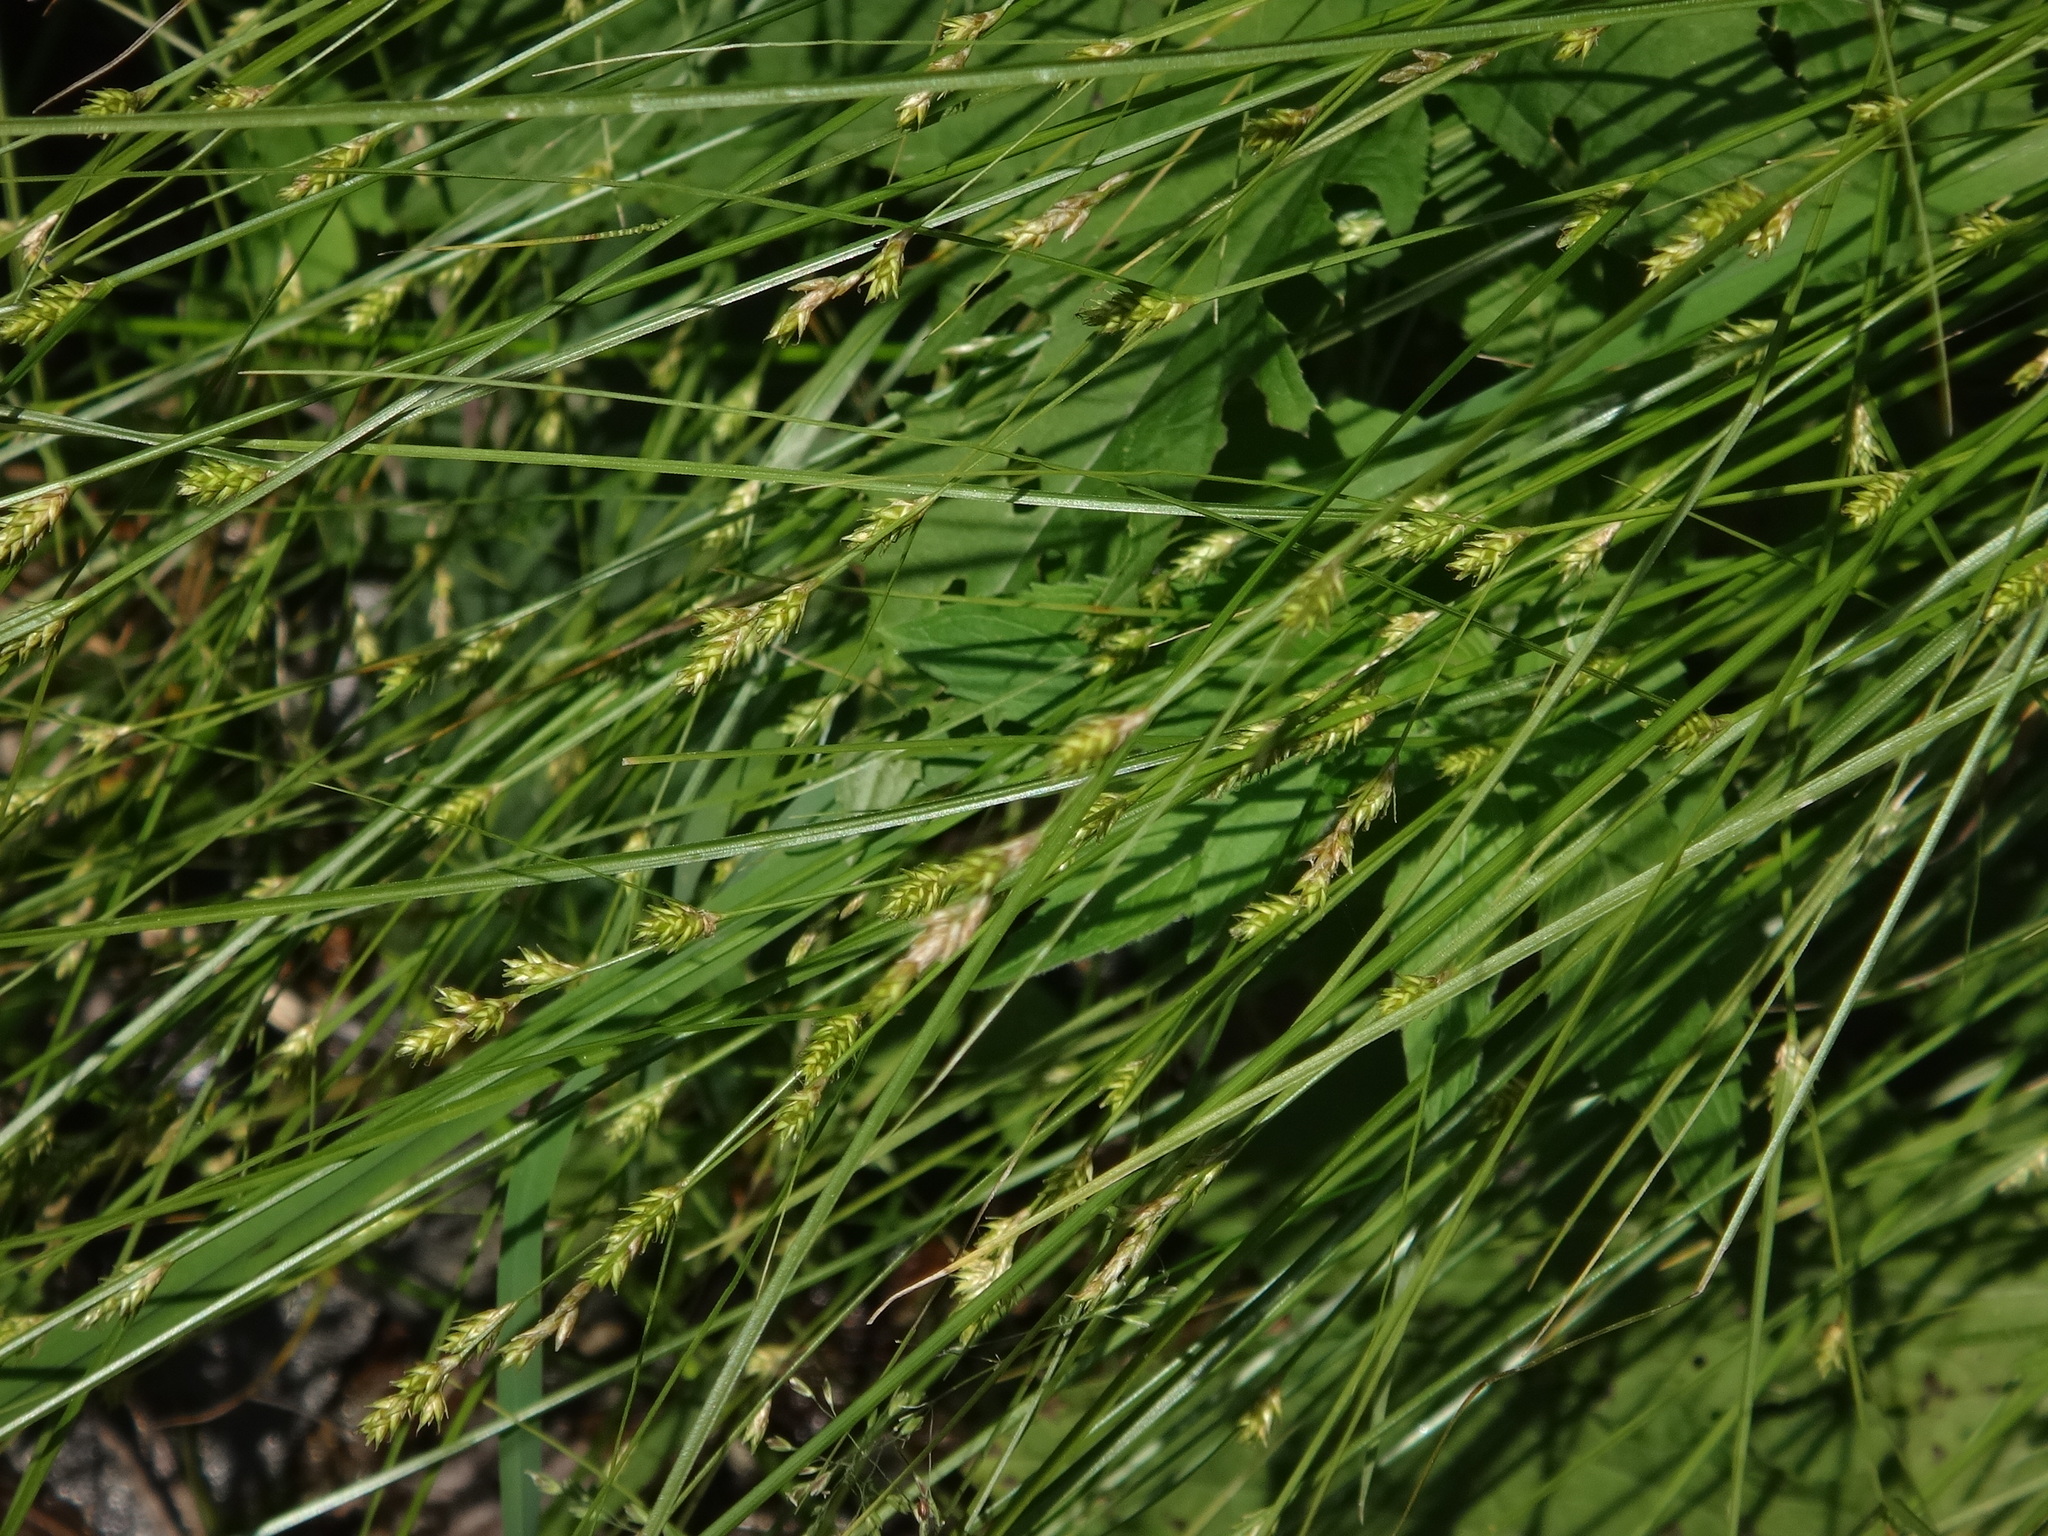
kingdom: Plantae
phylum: Tracheophyta
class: Liliopsida
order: Poales
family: Cyperaceae
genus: Carex
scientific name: Carex remota
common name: Remote sedge
